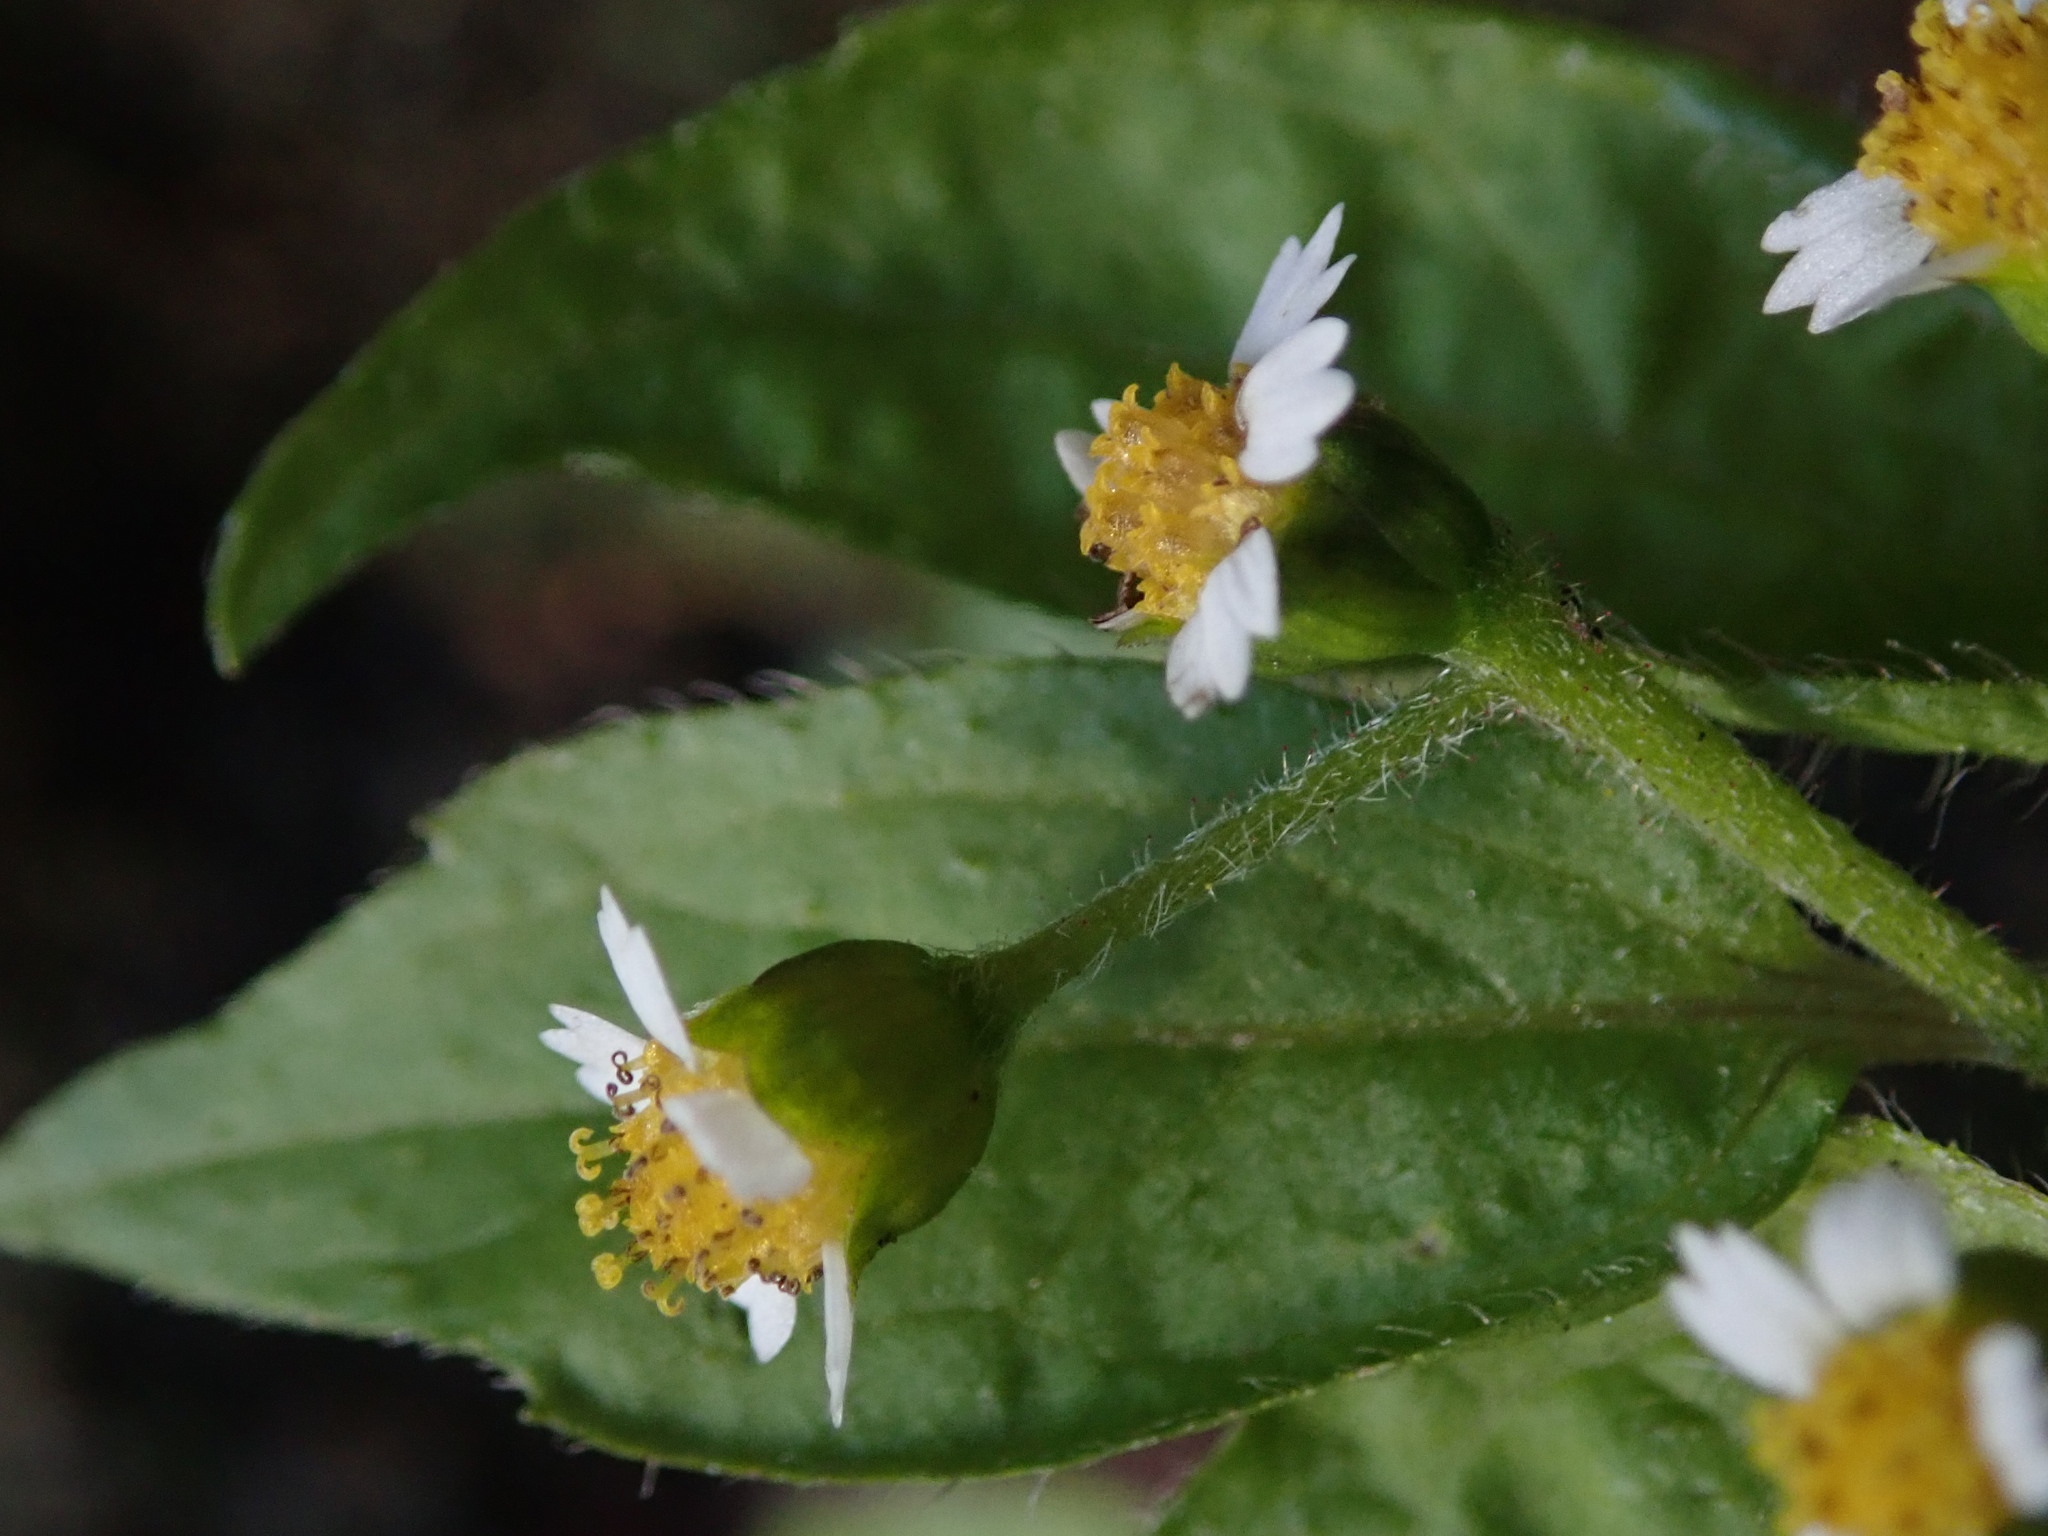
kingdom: Plantae
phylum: Tracheophyta
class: Magnoliopsida
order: Asterales
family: Asteraceae
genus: Galinsoga
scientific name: Galinsoga quadriradiata
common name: Shaggy soldier
